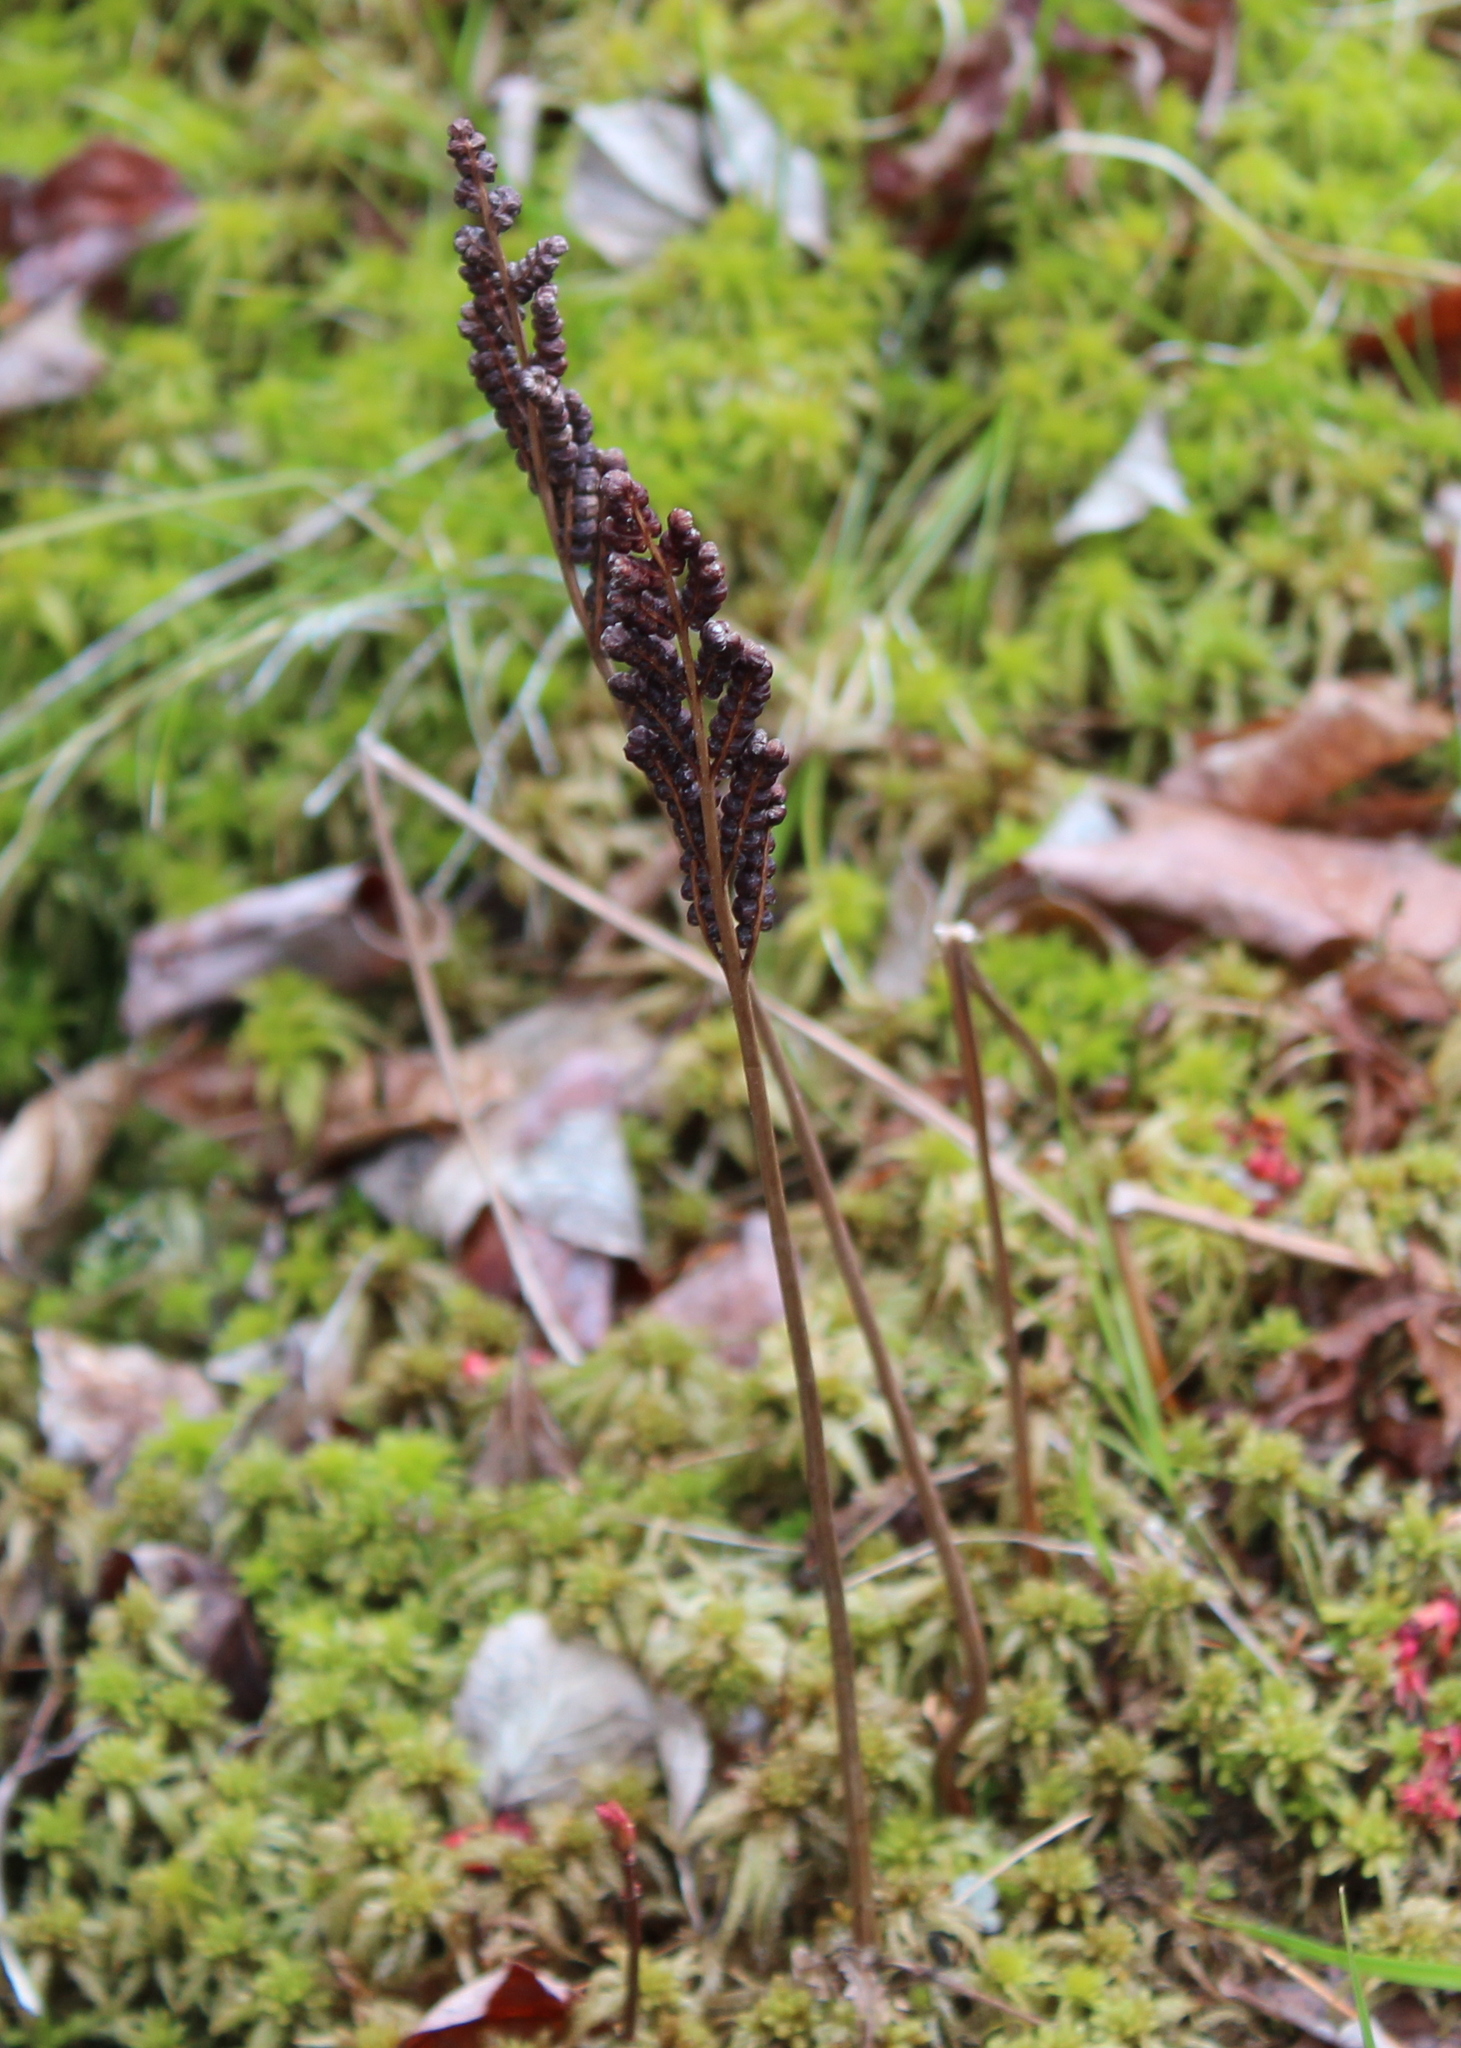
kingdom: Plantae
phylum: Tracheophyta
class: Polypodiopsida
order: Polypodiales
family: Onocleaceae
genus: Onoclea
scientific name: Onoclea sensibilis
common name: Sensitive fern
